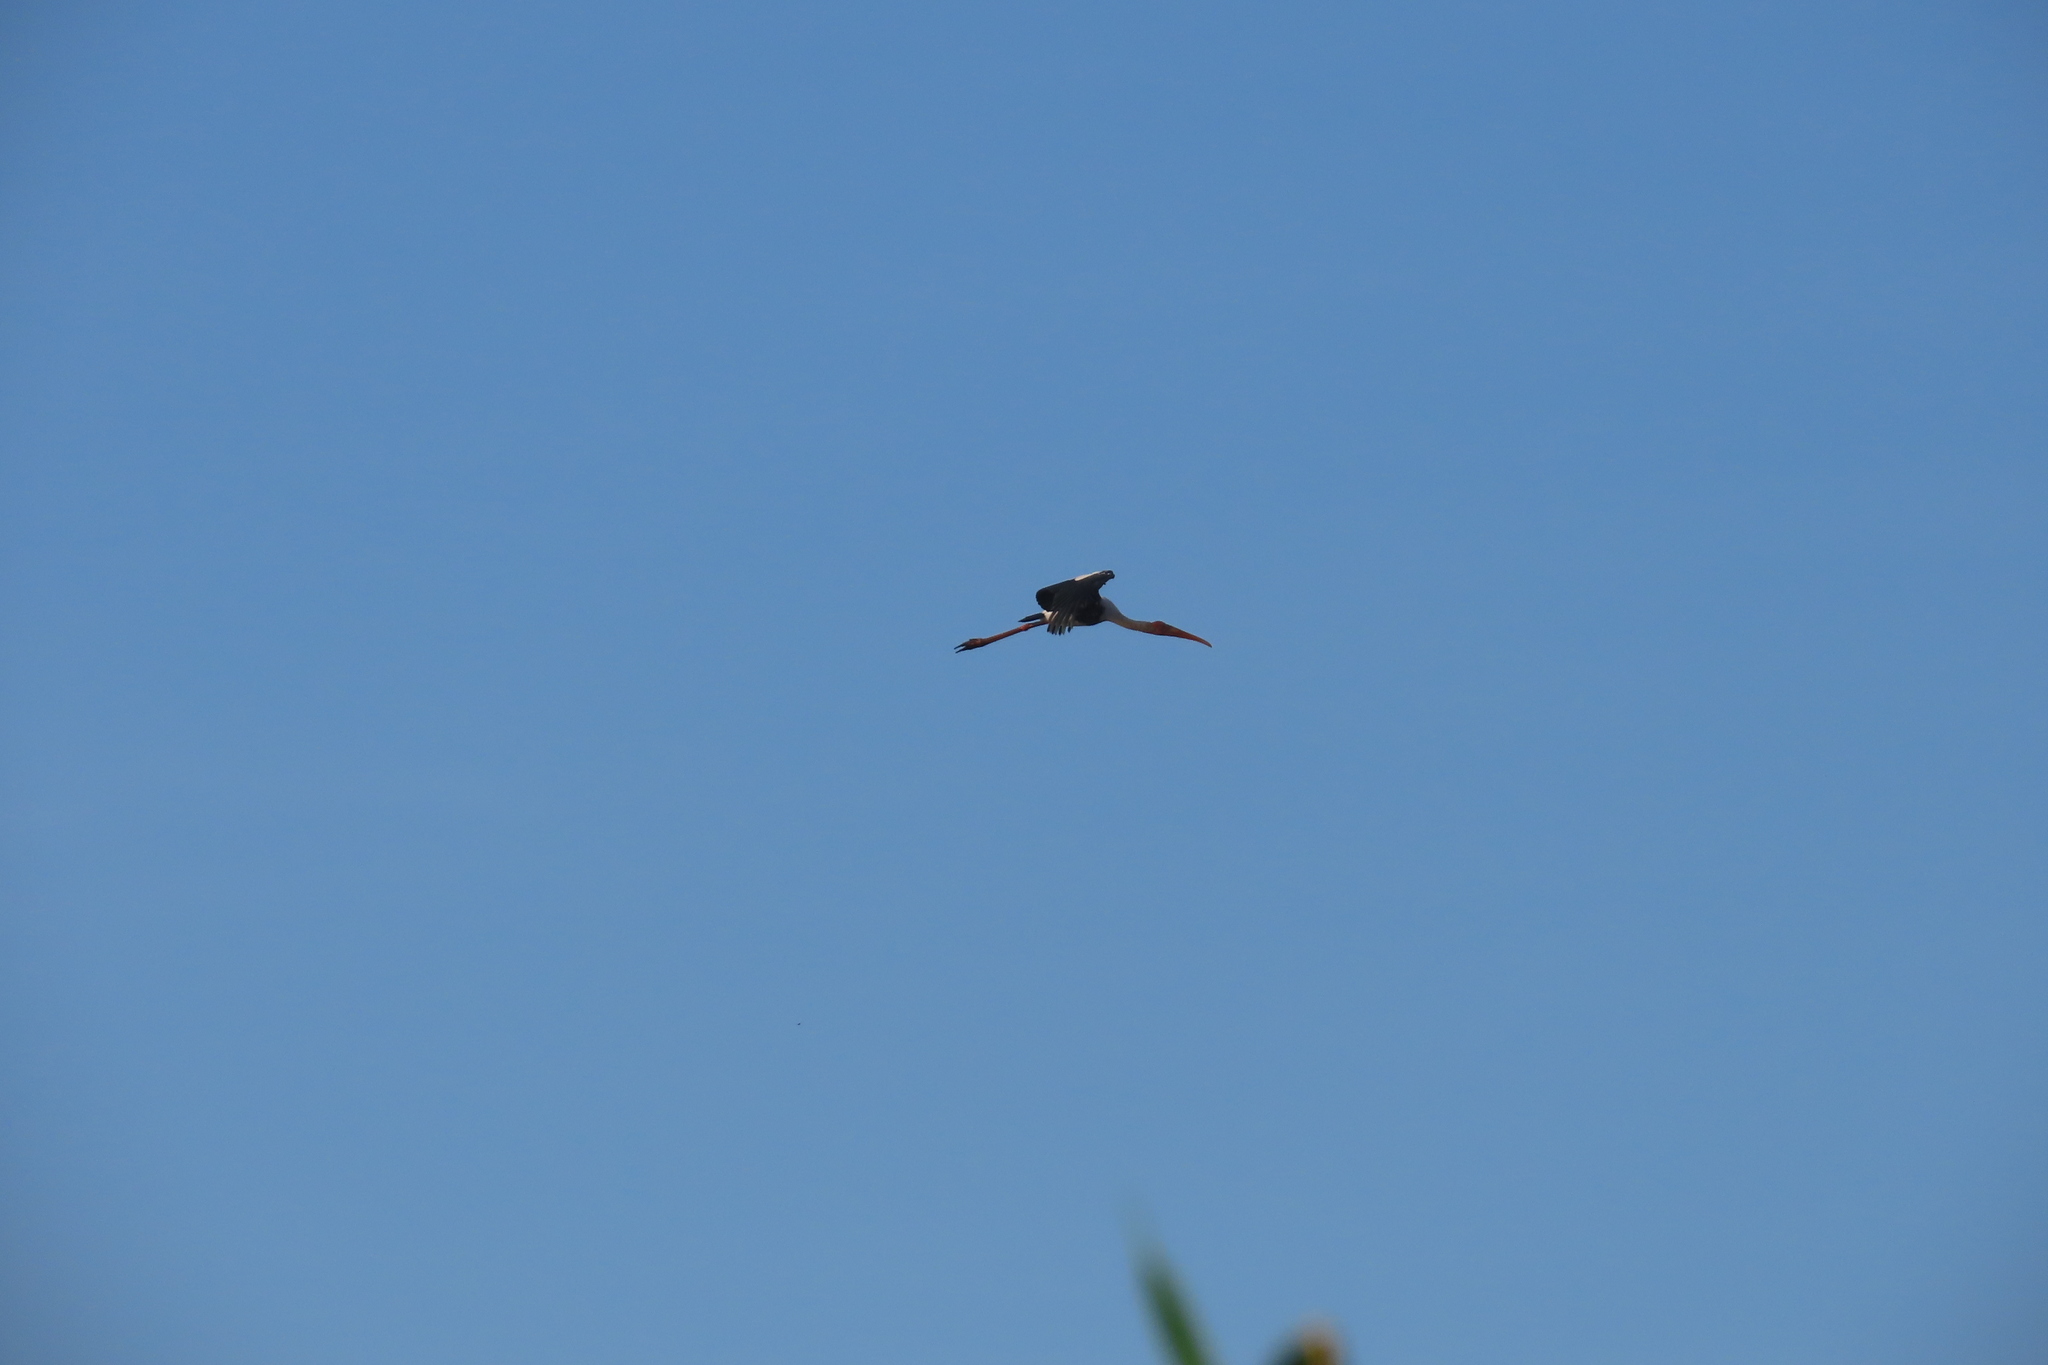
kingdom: Animalia
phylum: Chordata
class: Aves
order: Ciconiiformes
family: Ciconiidae
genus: Mycteria
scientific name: Mycteria leucocephala
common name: Painted stork
